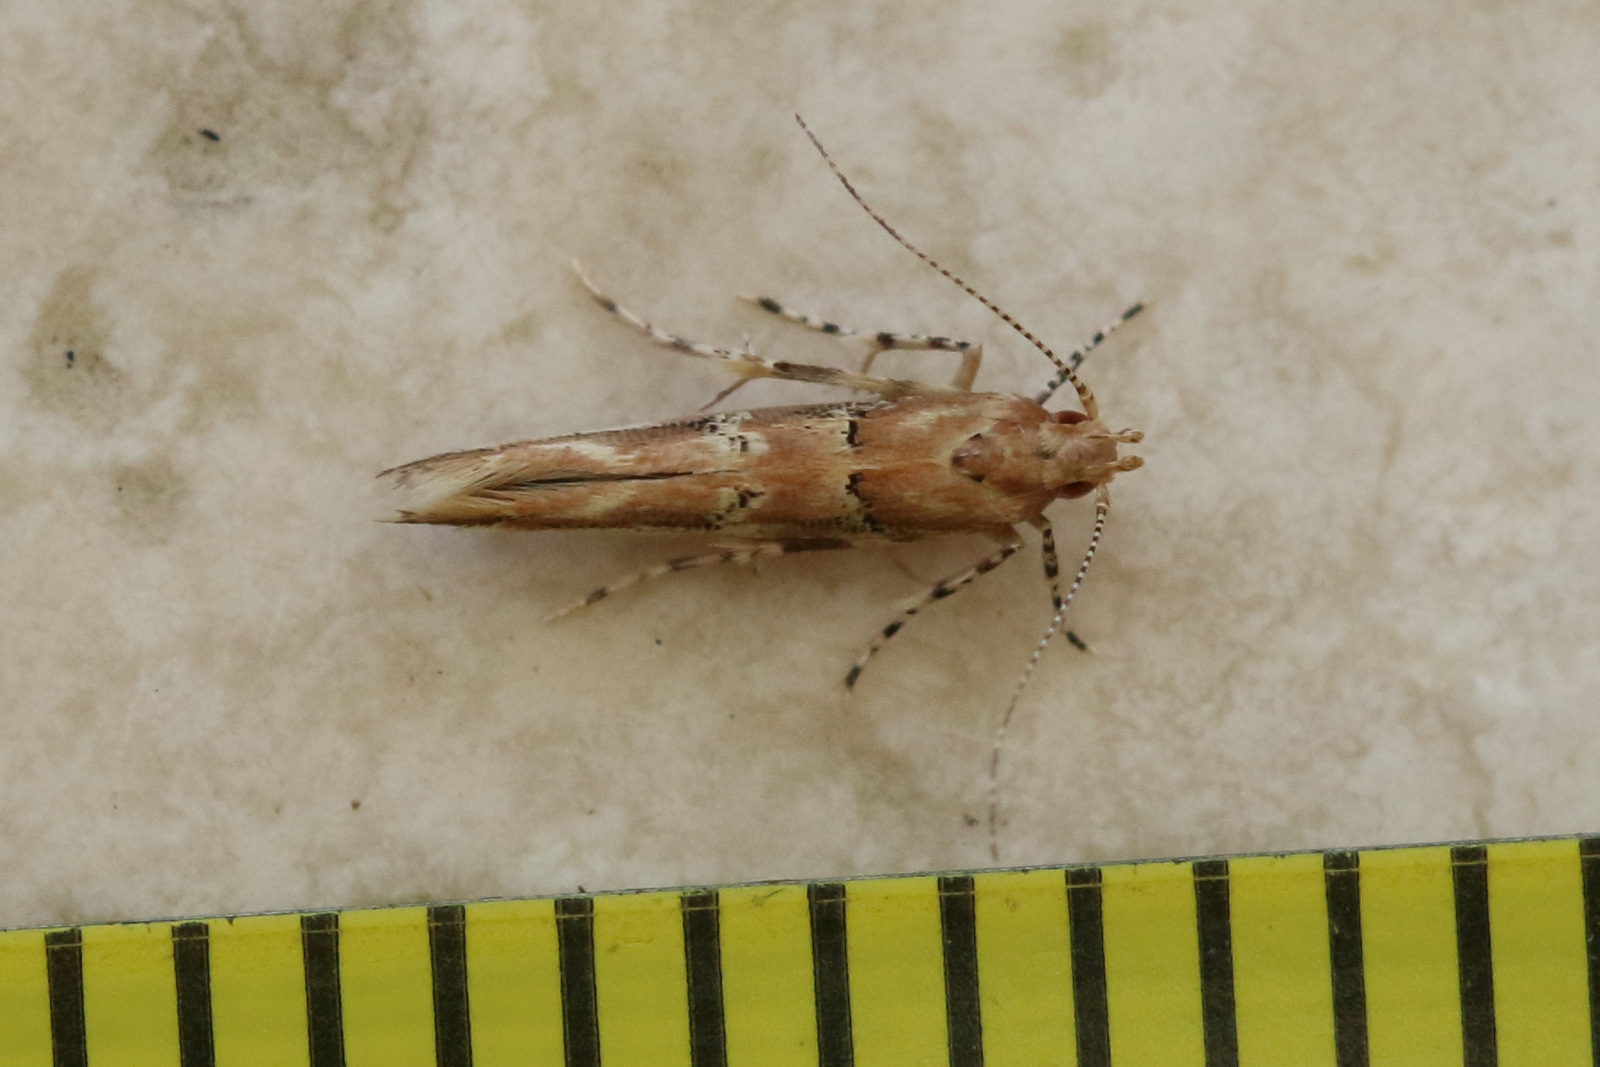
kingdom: Animalia
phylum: Arthropoda
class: Insecta
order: Lepidoptera
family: Cosmopterigidae
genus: Anatrachyntis
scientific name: Anatrachyntis rileyi
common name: Moth
